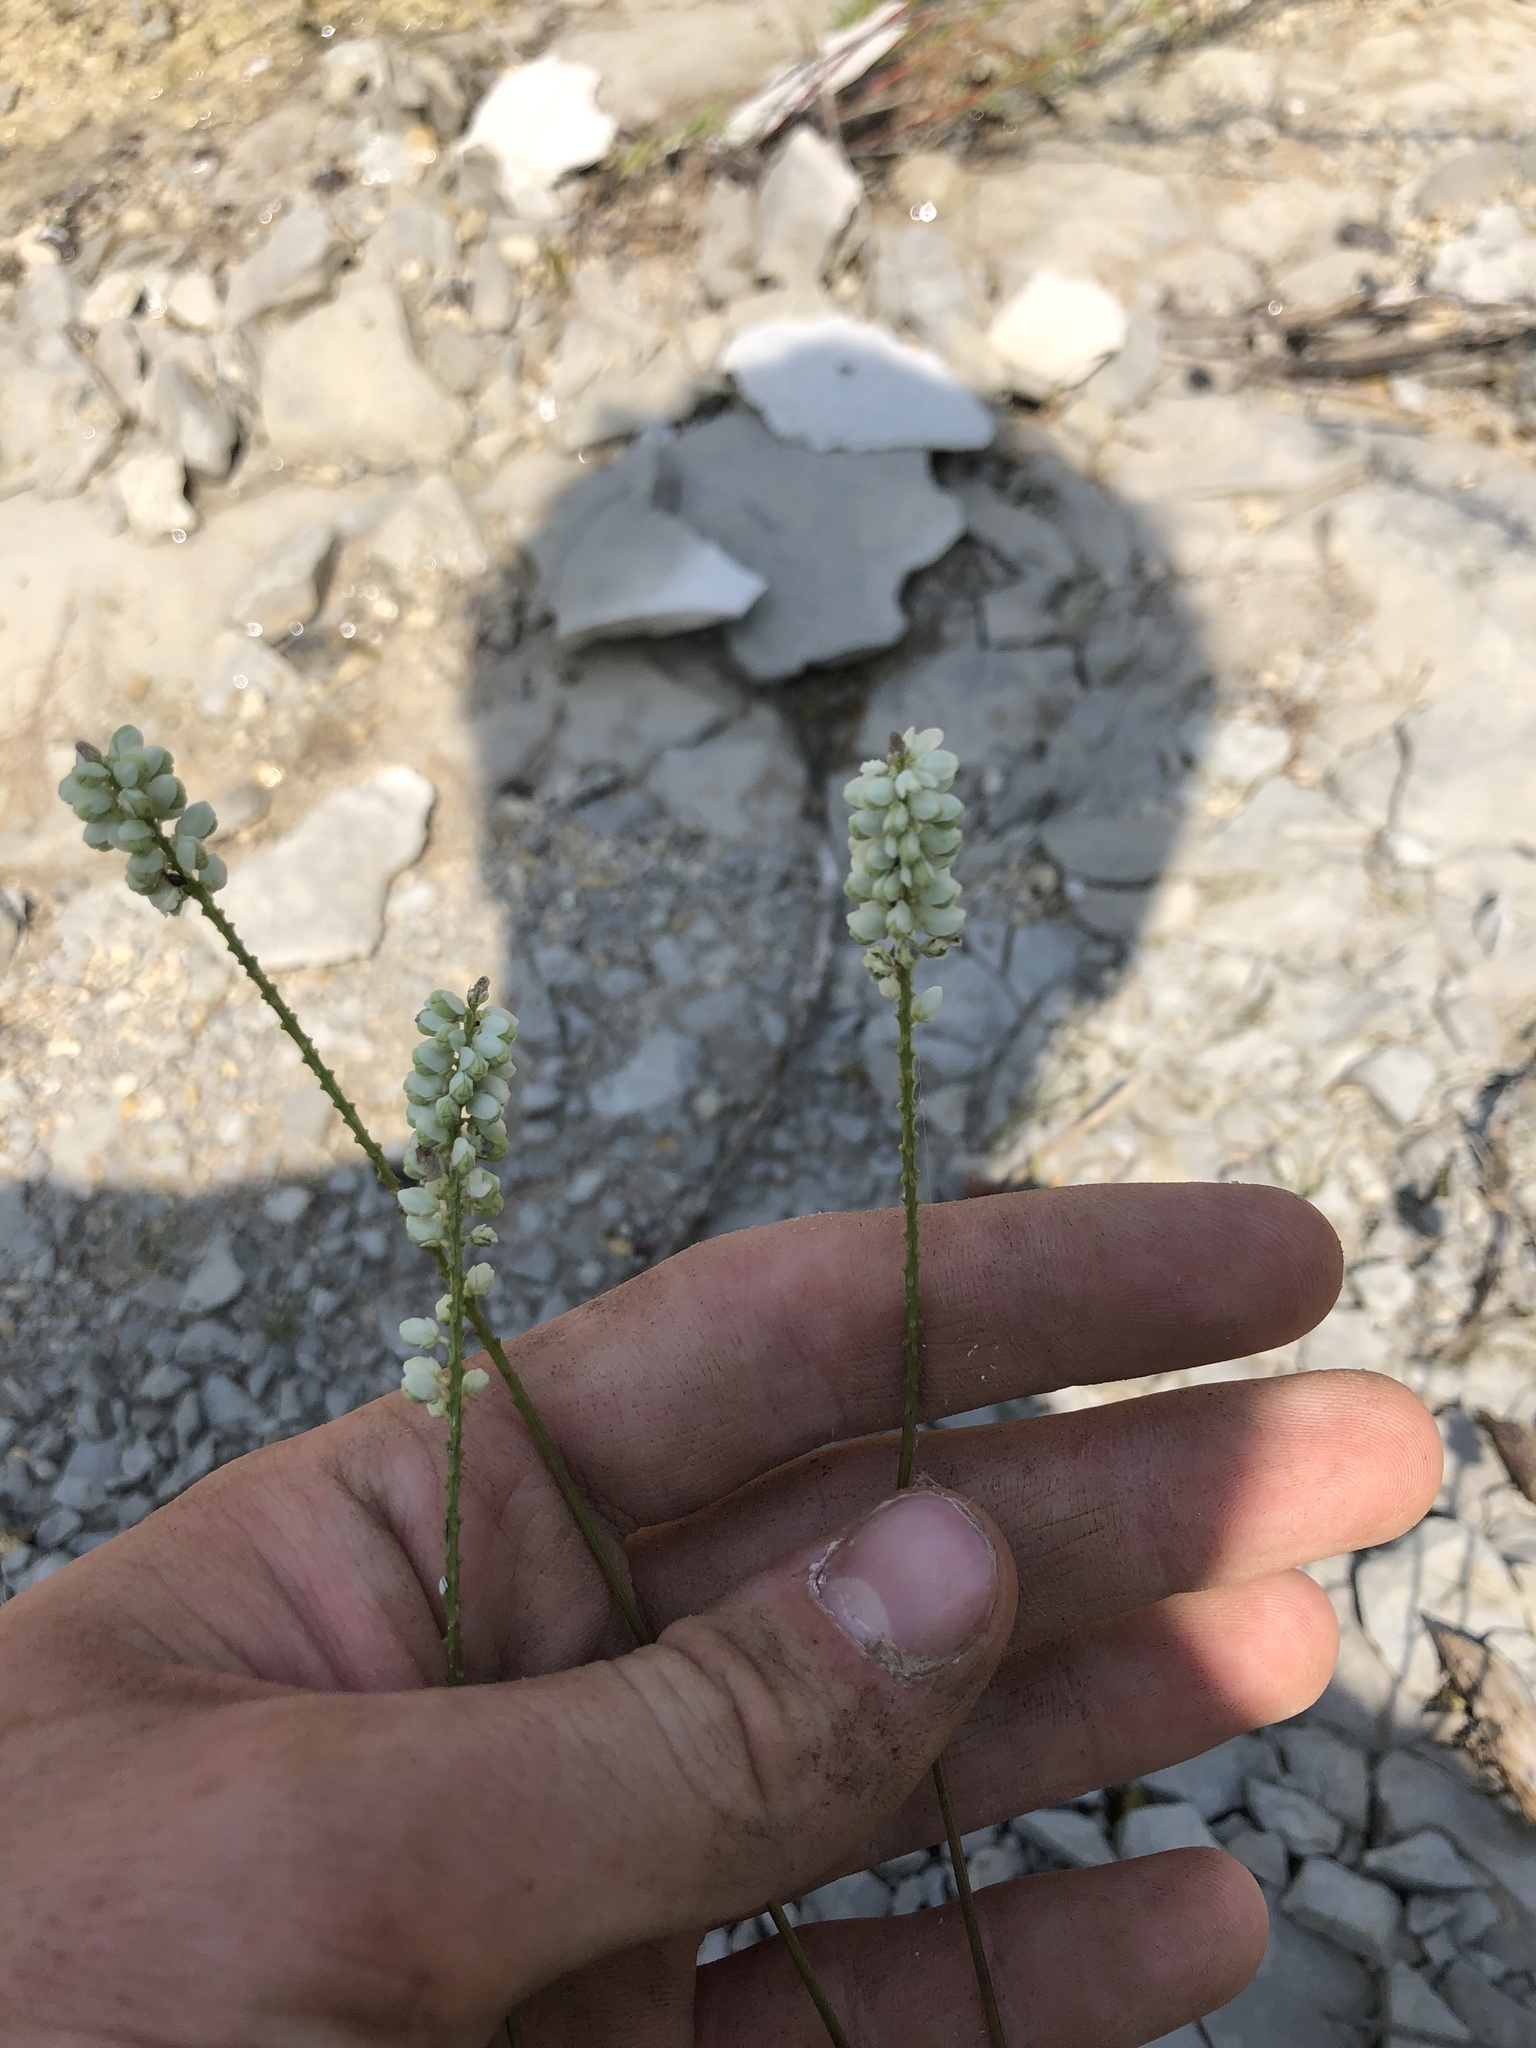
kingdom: Plantae
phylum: Tracheophyta
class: Magnoliopsida
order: Fabales
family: Polygalaceae
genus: Polygala
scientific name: Polygala boykinii
